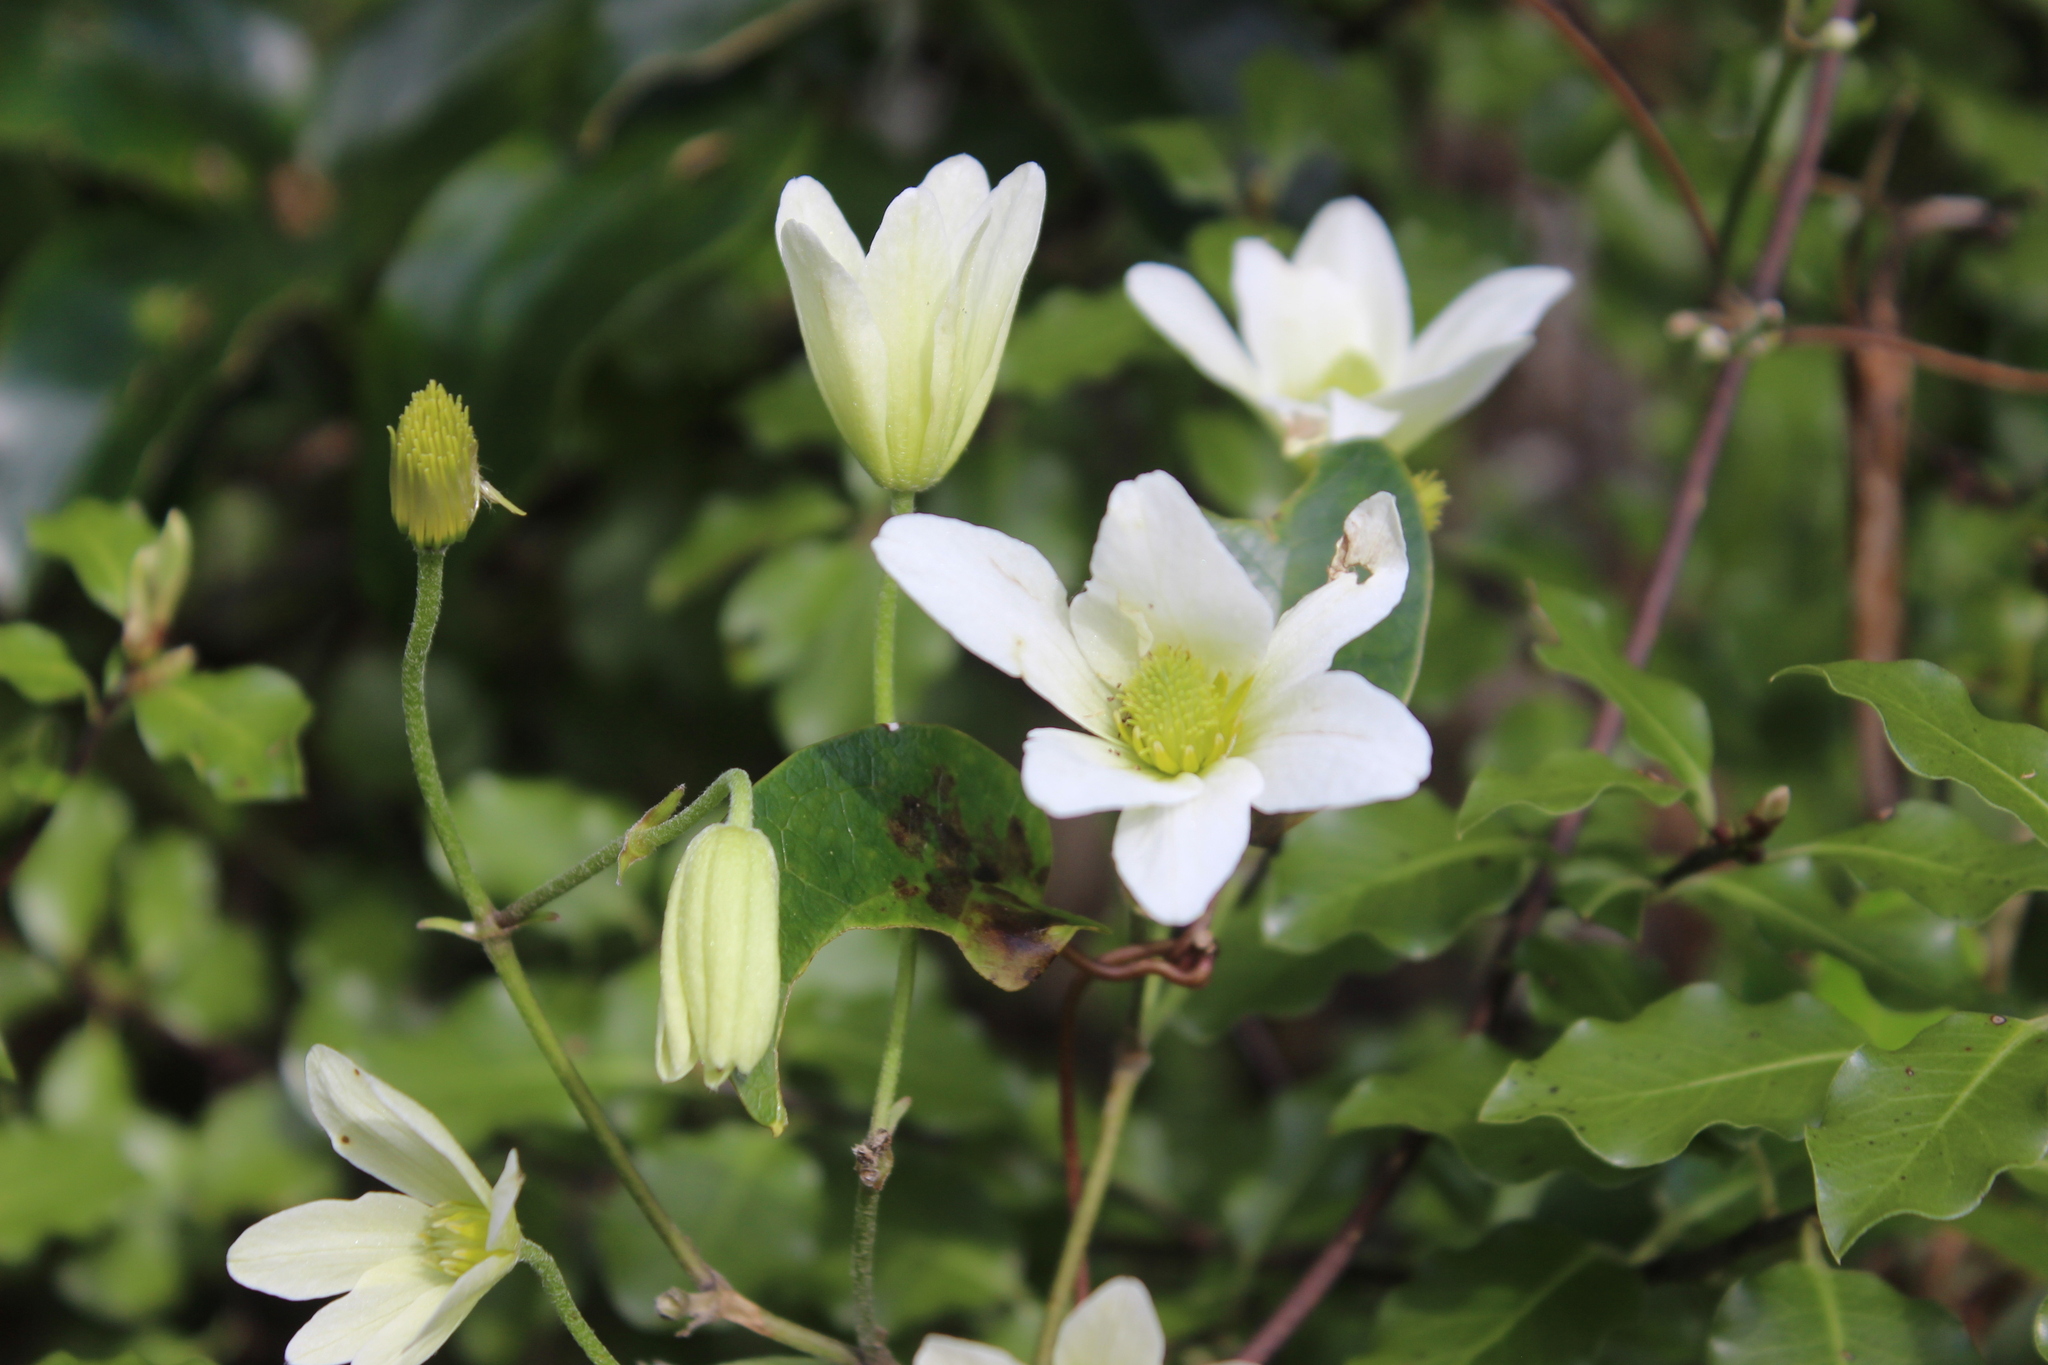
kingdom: Plantae
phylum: Tracheophyta
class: Magnoliopsida
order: Ranunculales
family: Ranunculaceae
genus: Clematis
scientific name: Clematis paniculata
